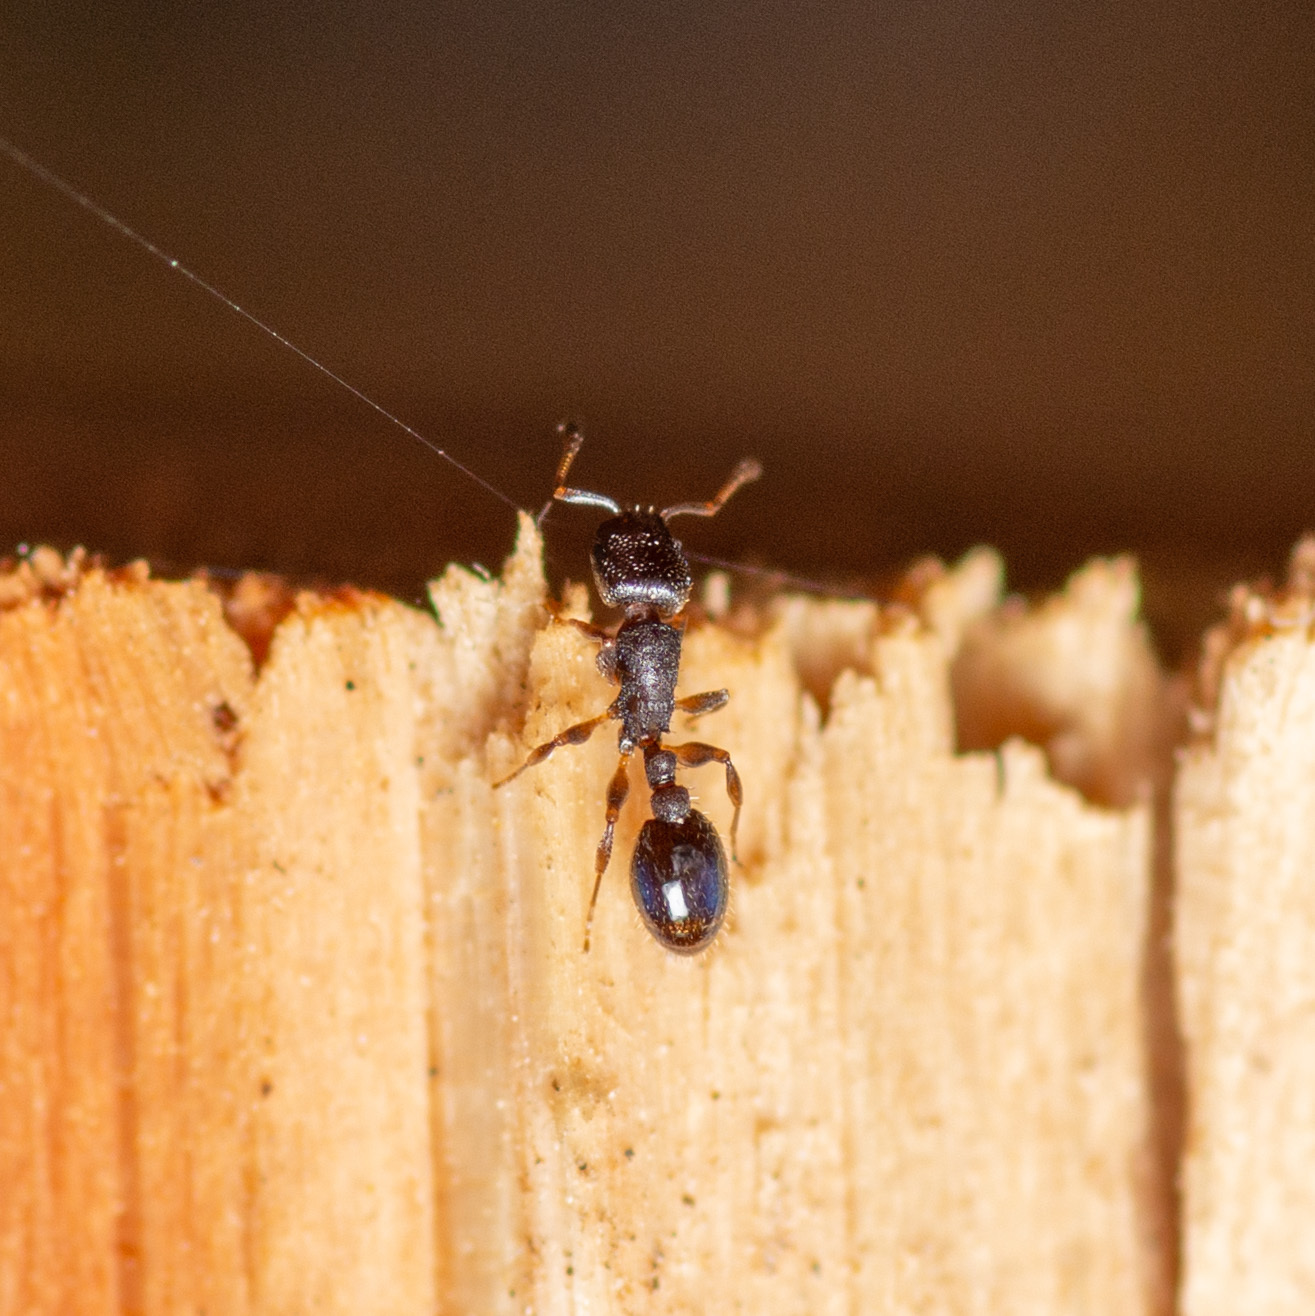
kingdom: Animalia
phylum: Arthropoda
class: Insecta
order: Hymenoptera
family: Formicidae
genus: Leptothorax
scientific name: Leptothorax schaumii
